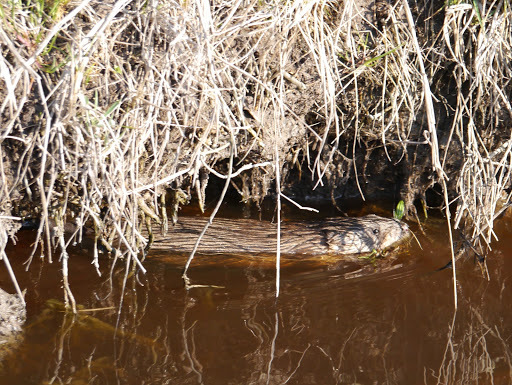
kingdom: Animalia
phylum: Chordata
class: Mammalia
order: Rodentia
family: Cricetidae
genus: Ondatra
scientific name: Ondatra zibethicus
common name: Muskrat
